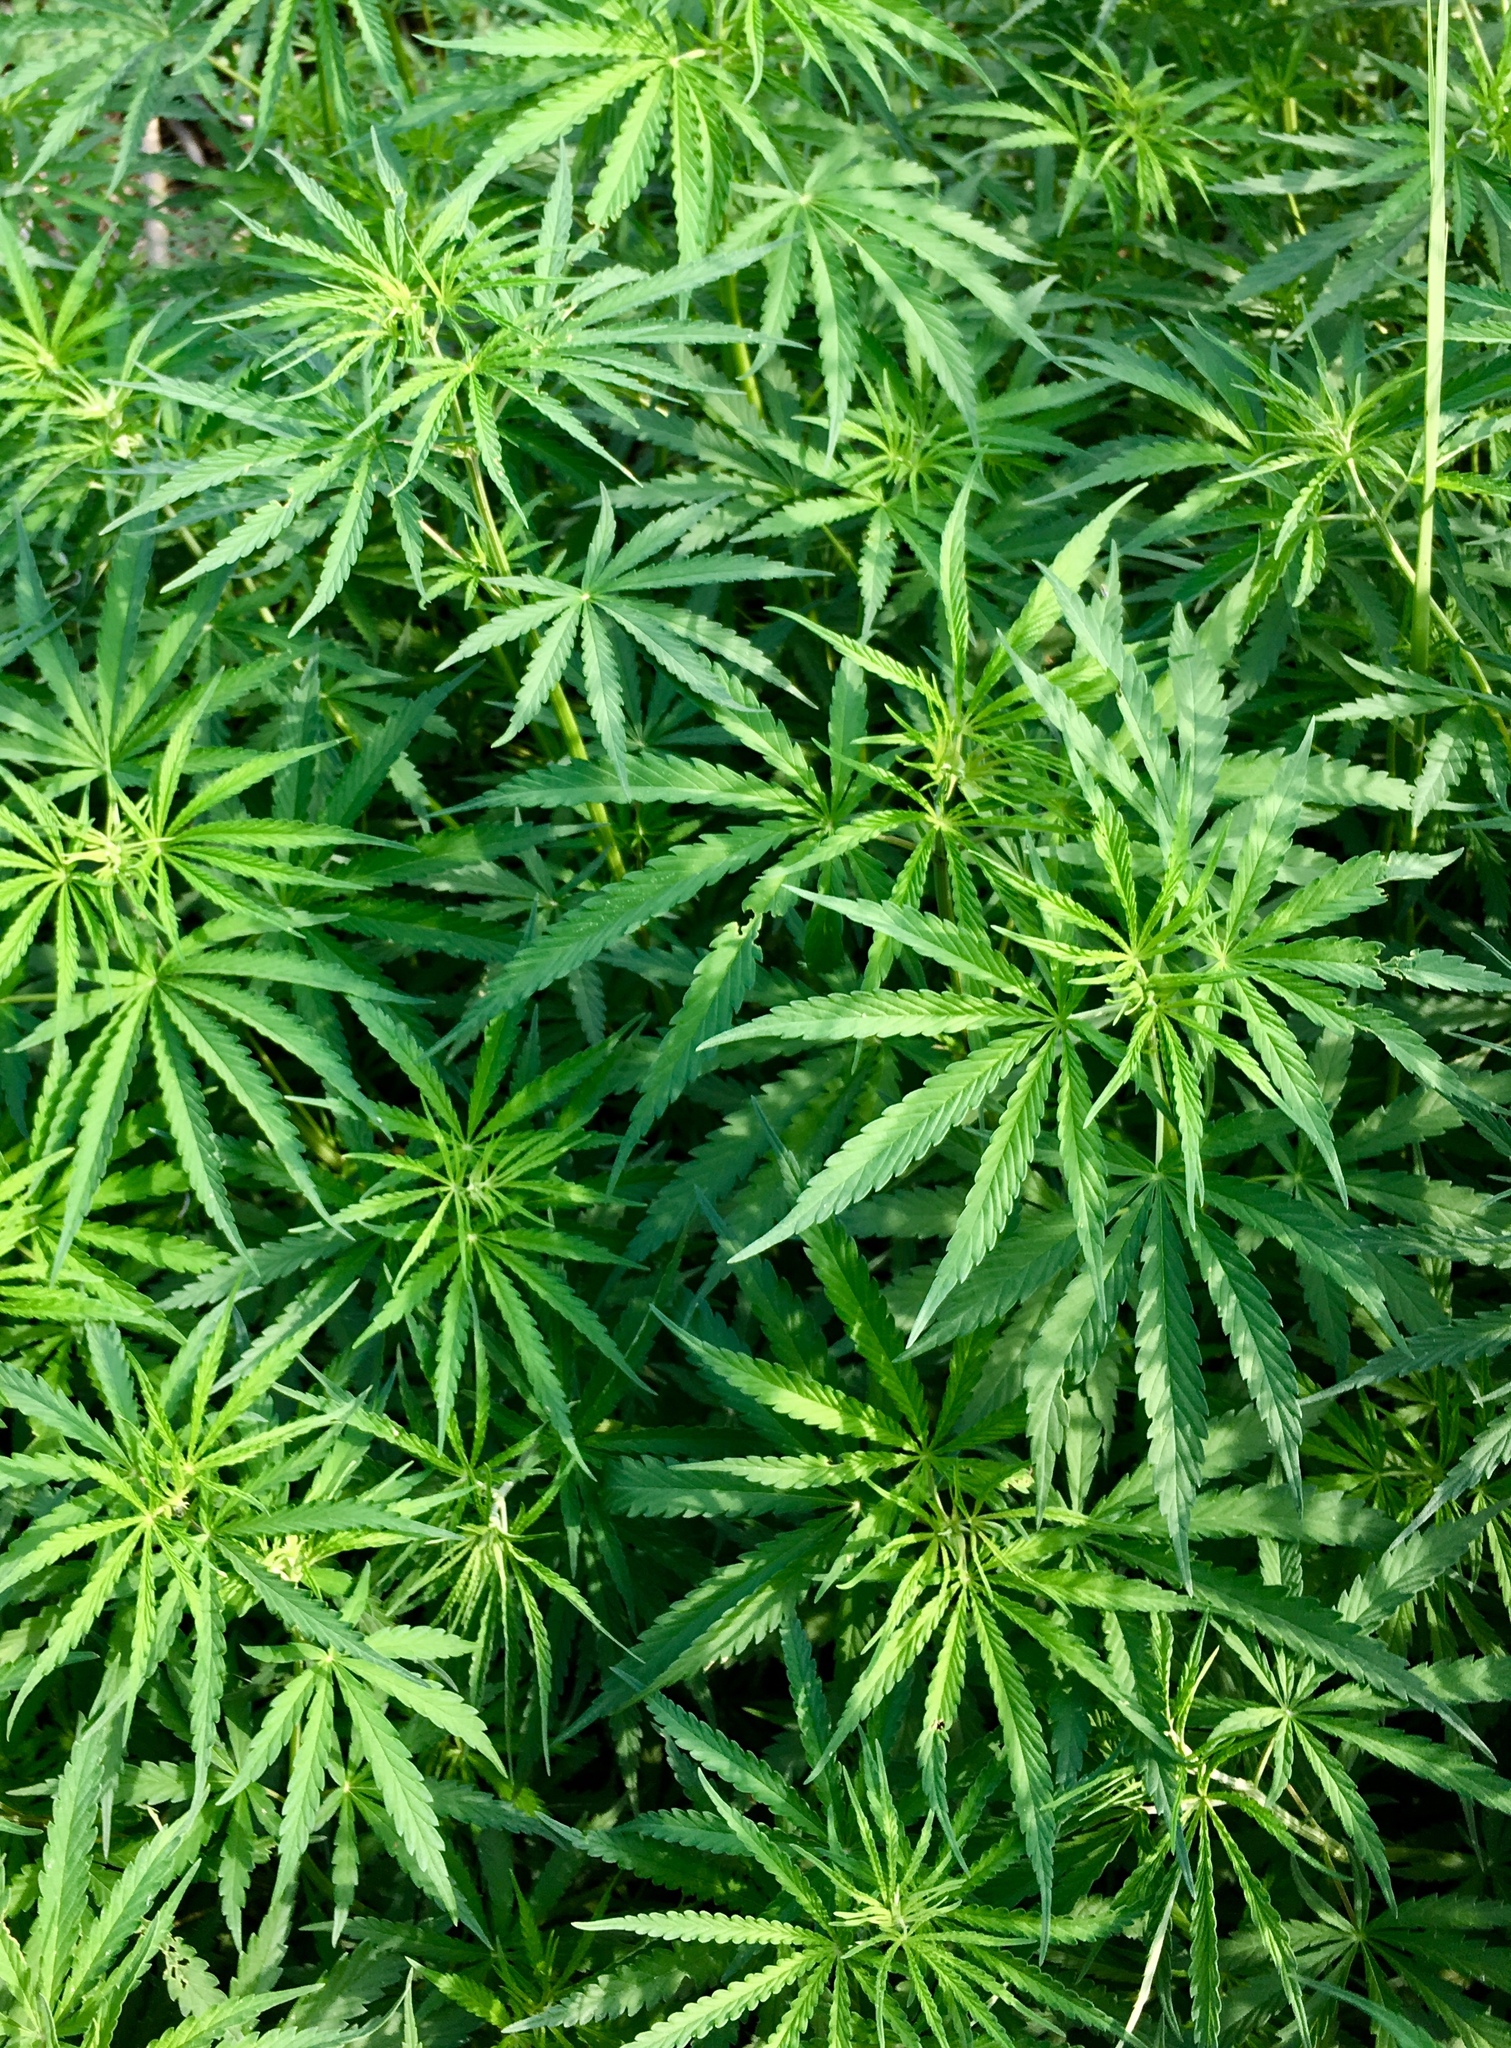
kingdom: Plantae
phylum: Tracheophyta
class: Magnoliopsida
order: Rosales
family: Cannabaceae
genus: Cannabis
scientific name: Cannabis sativa
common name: Hemp
